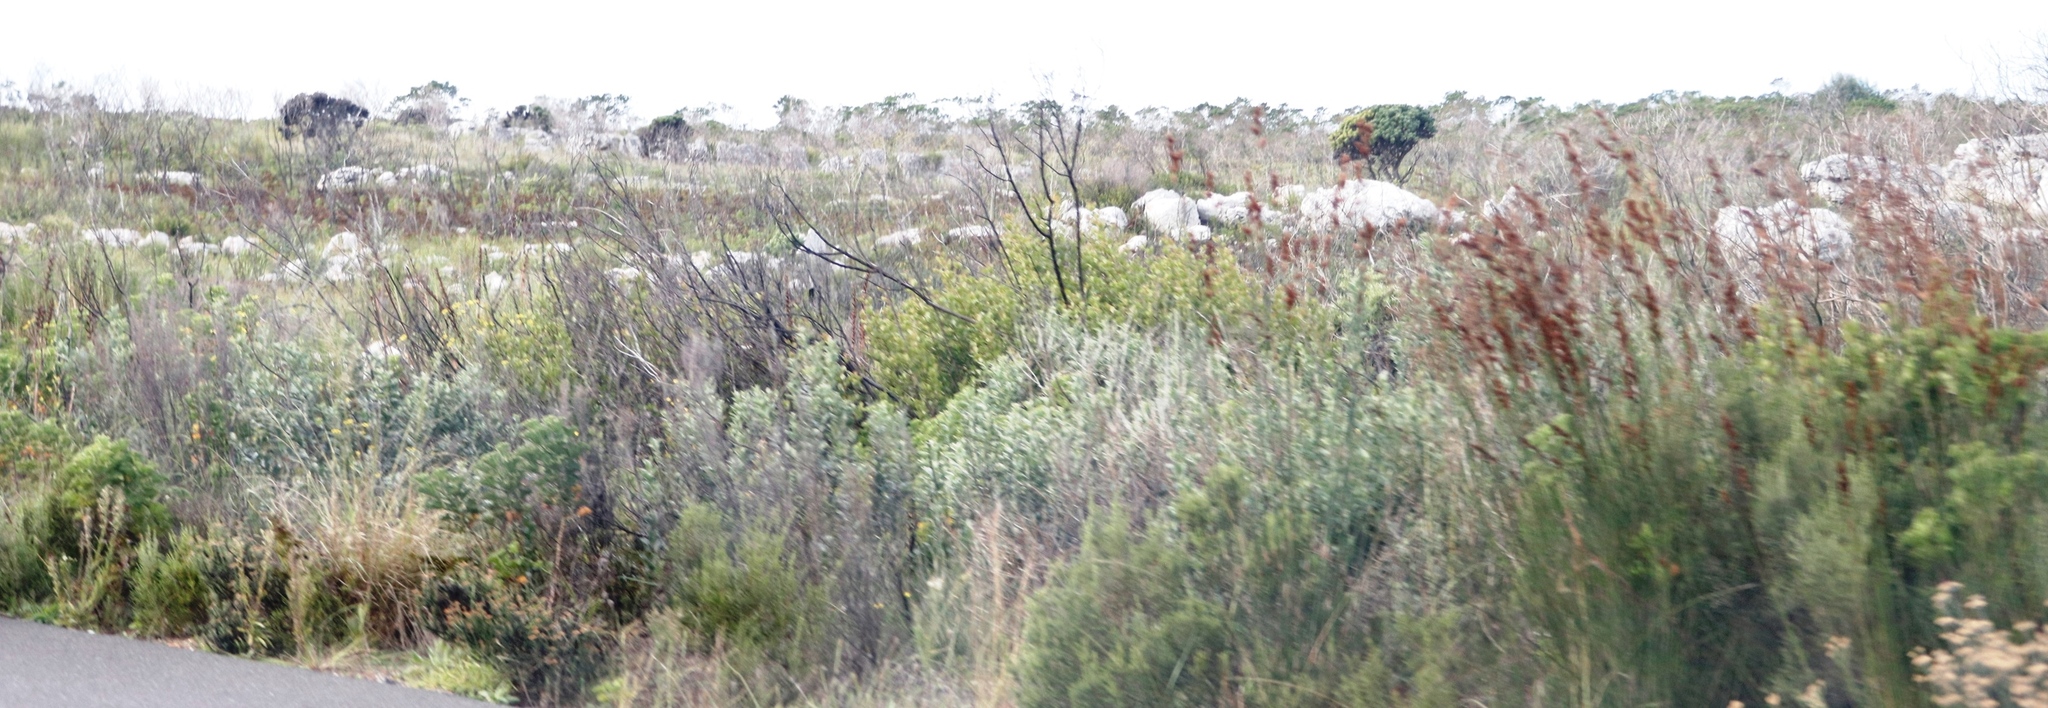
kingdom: Plantae
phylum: Tracheophyta
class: Liliopsida
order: Poales
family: Restionaceae
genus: Thamnochortus
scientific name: Thamnochortus insignis
